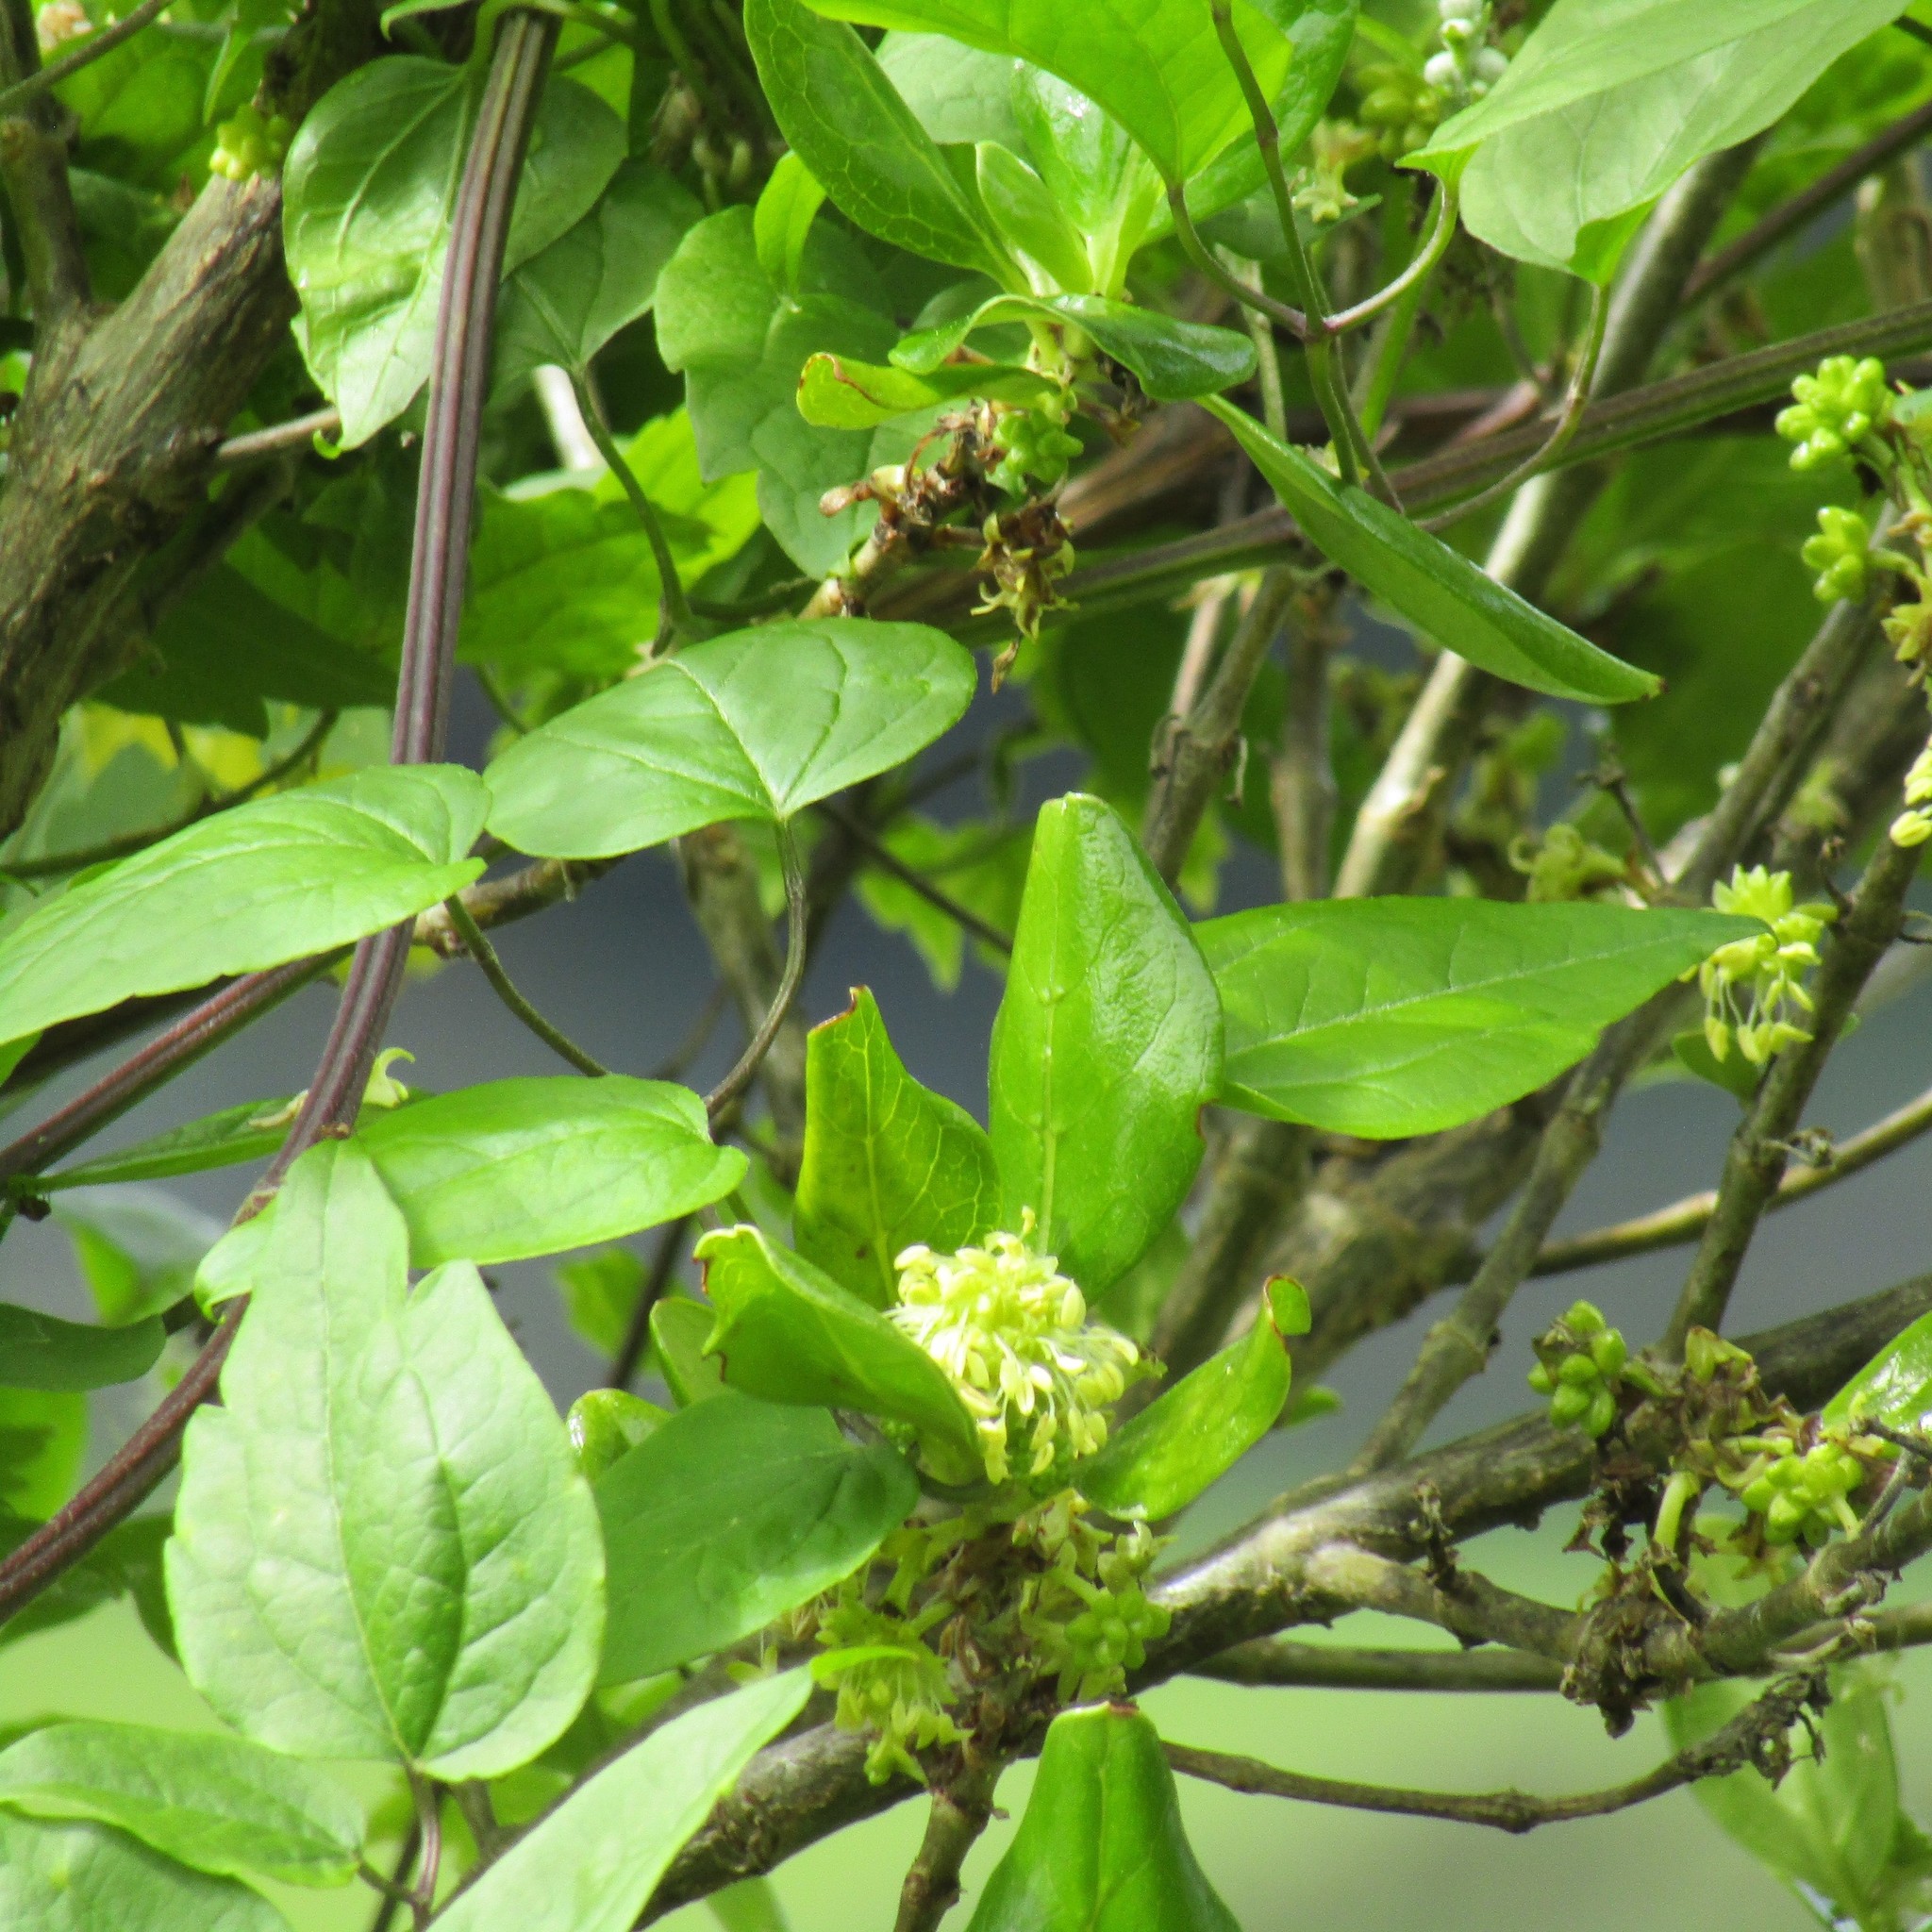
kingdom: Plantae
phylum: Tracheophyta
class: Magnoliopsida
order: Ranunculales
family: Ranunculaceae
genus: Clematis
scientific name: Clematis vitalba
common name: Evergreen clematis
